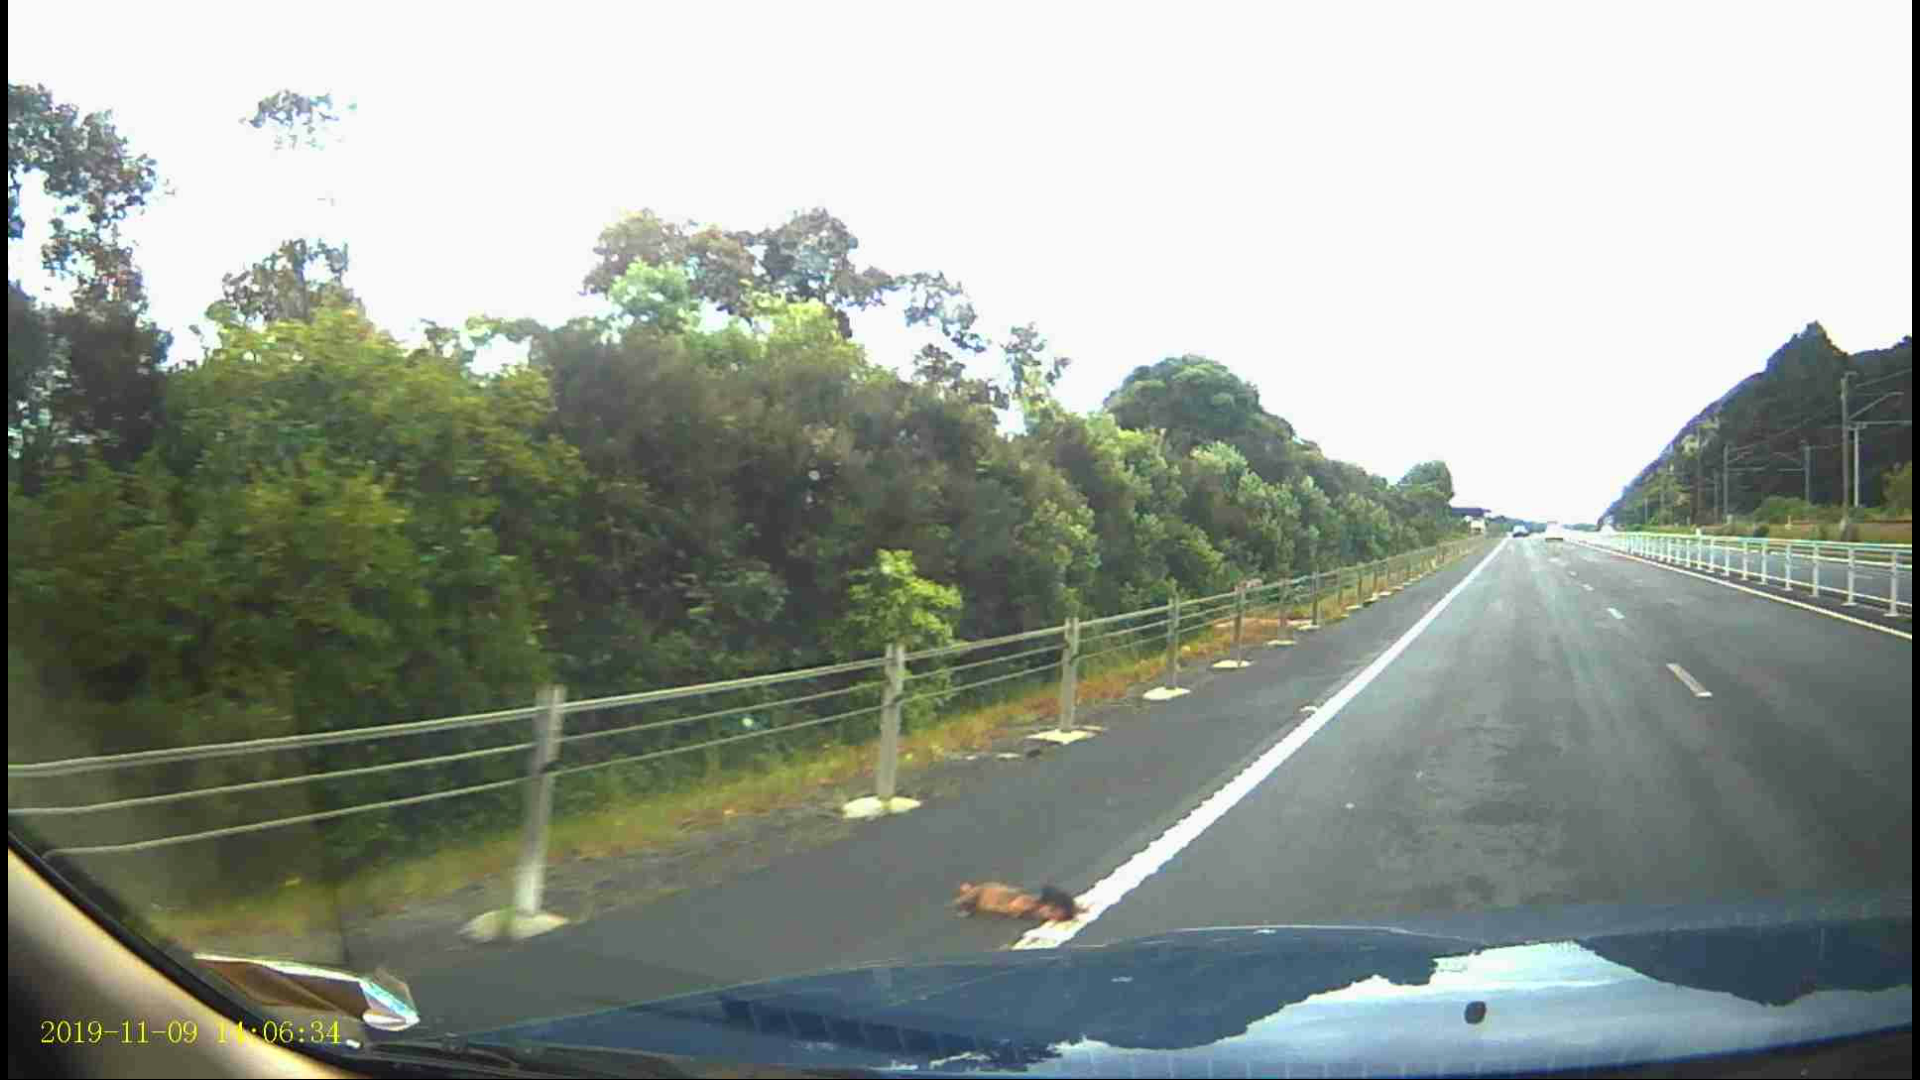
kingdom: Animalia
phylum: Chordata
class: Mammalia
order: Diprotodontia
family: Phalangeridae
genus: Trichosurus
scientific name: Trichosurus vulpecula
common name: Common brushtail
